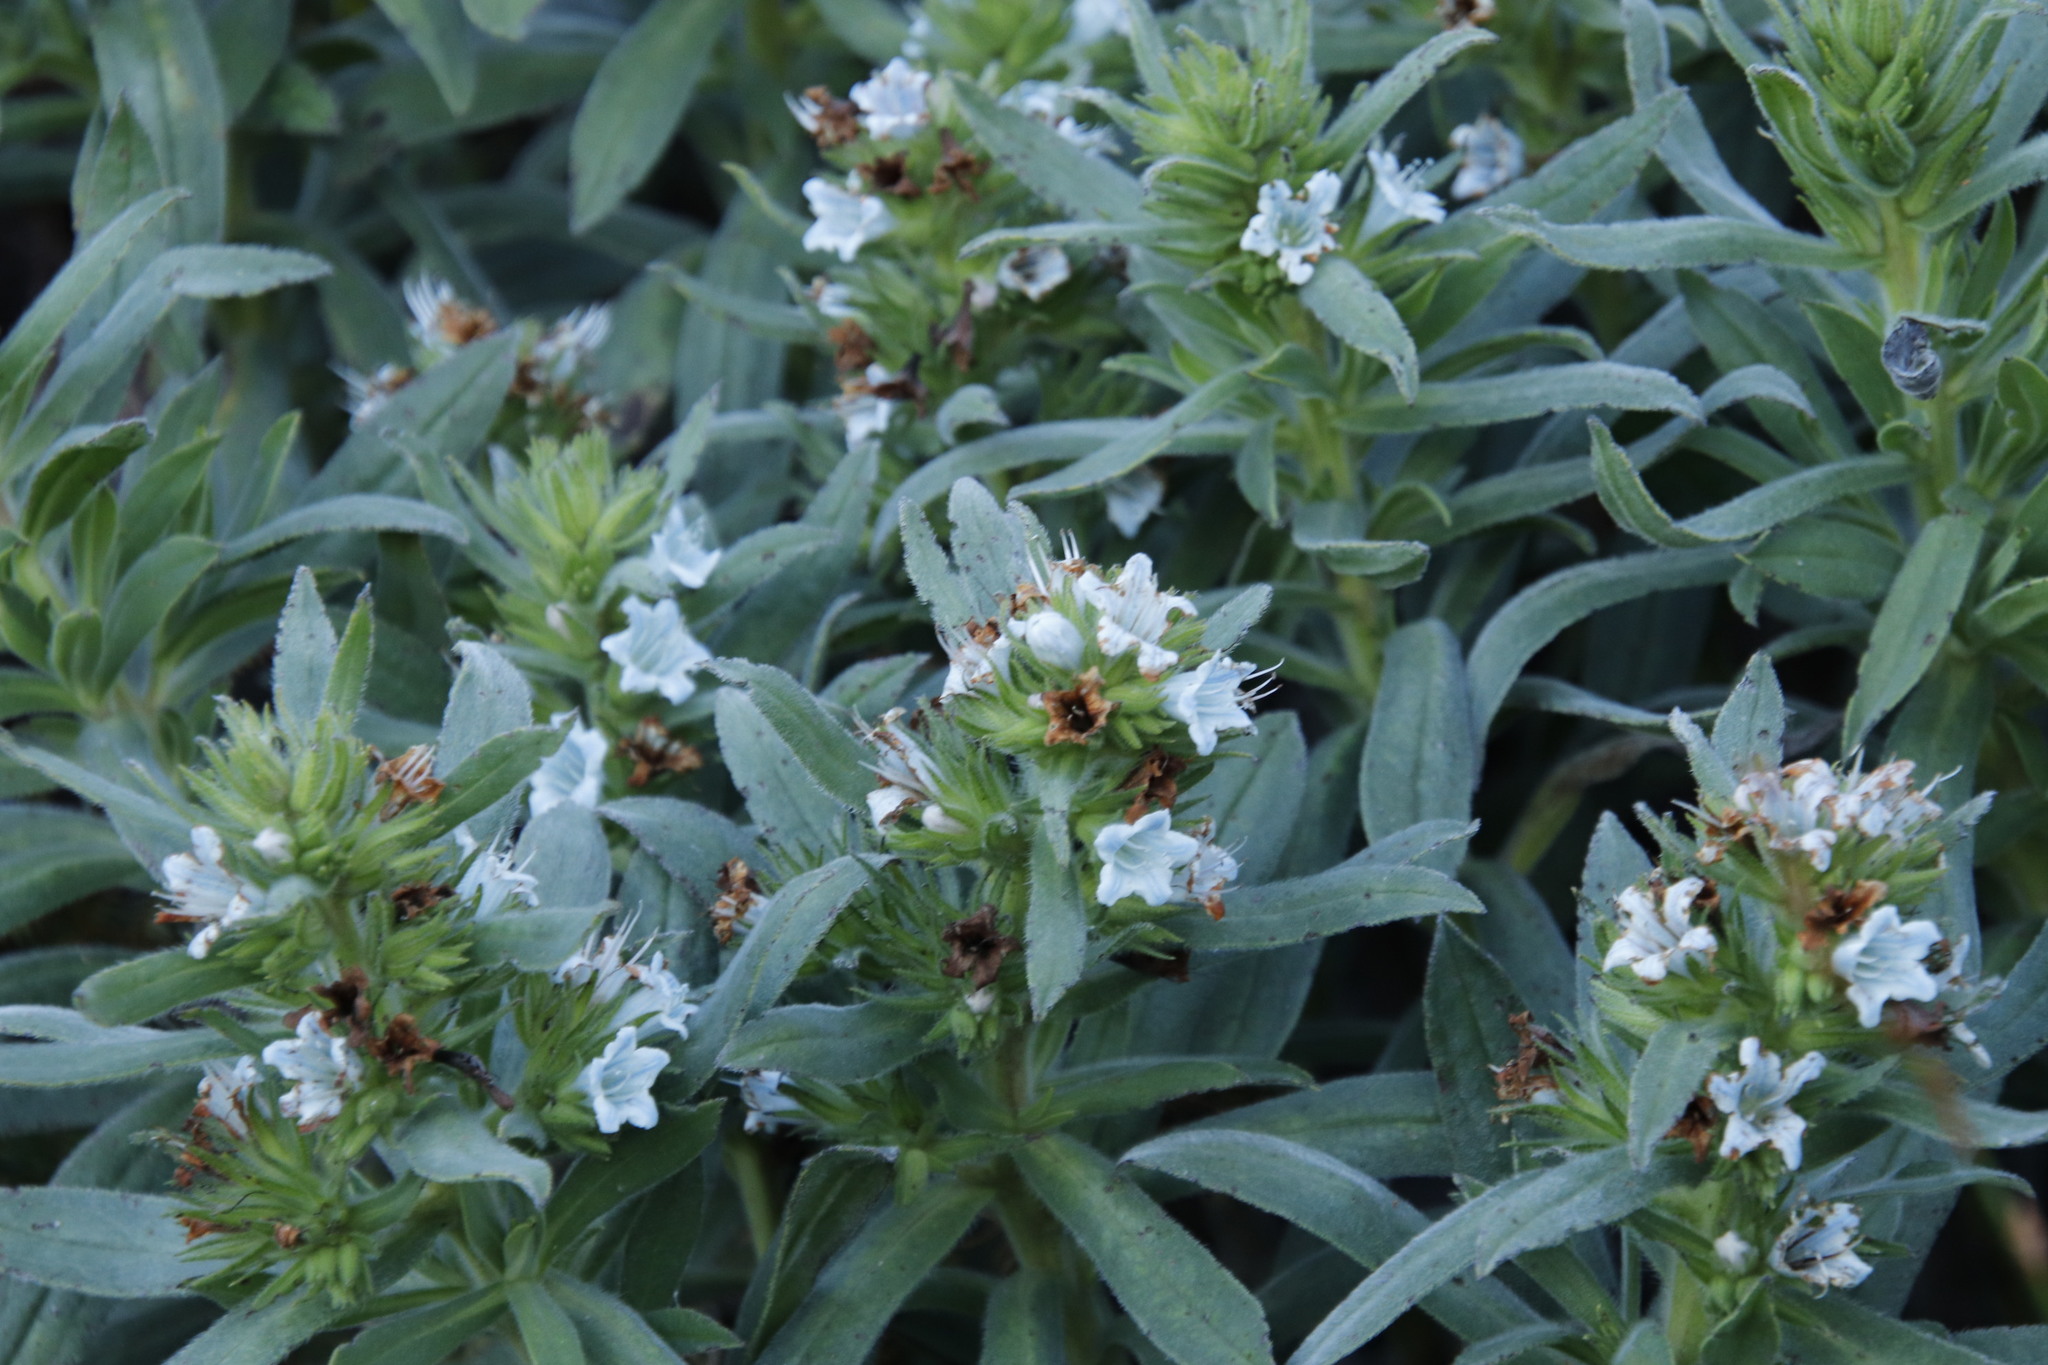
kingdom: Plantae
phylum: Tracheophyta
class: Magnoliopsida
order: Boraginales
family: Boraginaceae
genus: Lobostemon
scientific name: Lobostemon montanus
